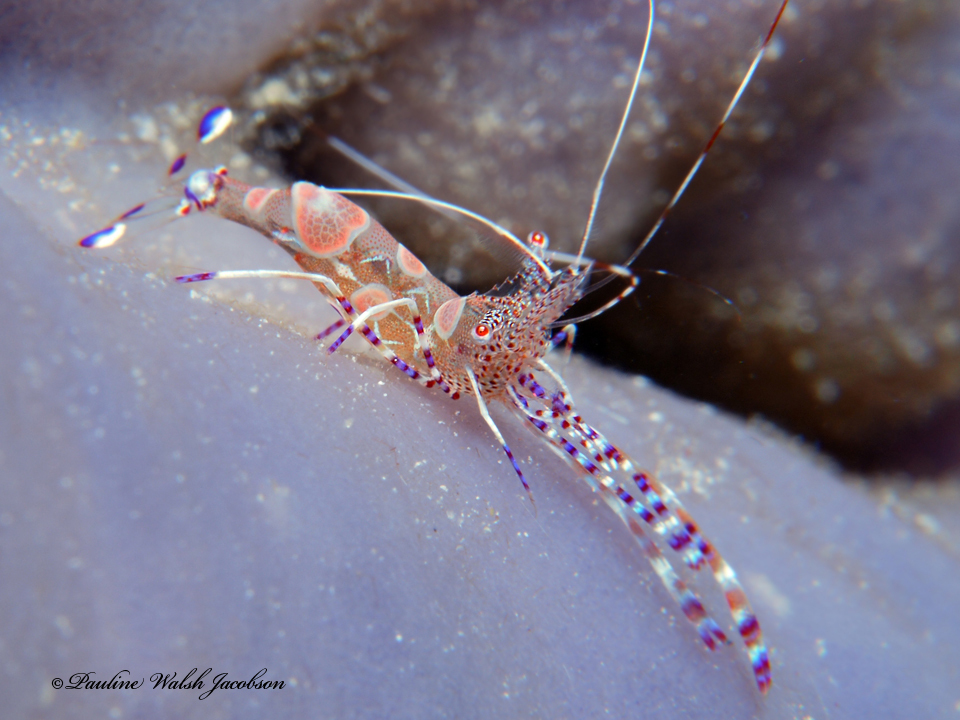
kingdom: Animalia
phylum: Arthropoda
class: Malacostraca
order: Decapoda
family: Palaemonidae
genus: Periclimenes
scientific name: Periclimenes yucatanicus
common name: Spotted cleaning shrimp
